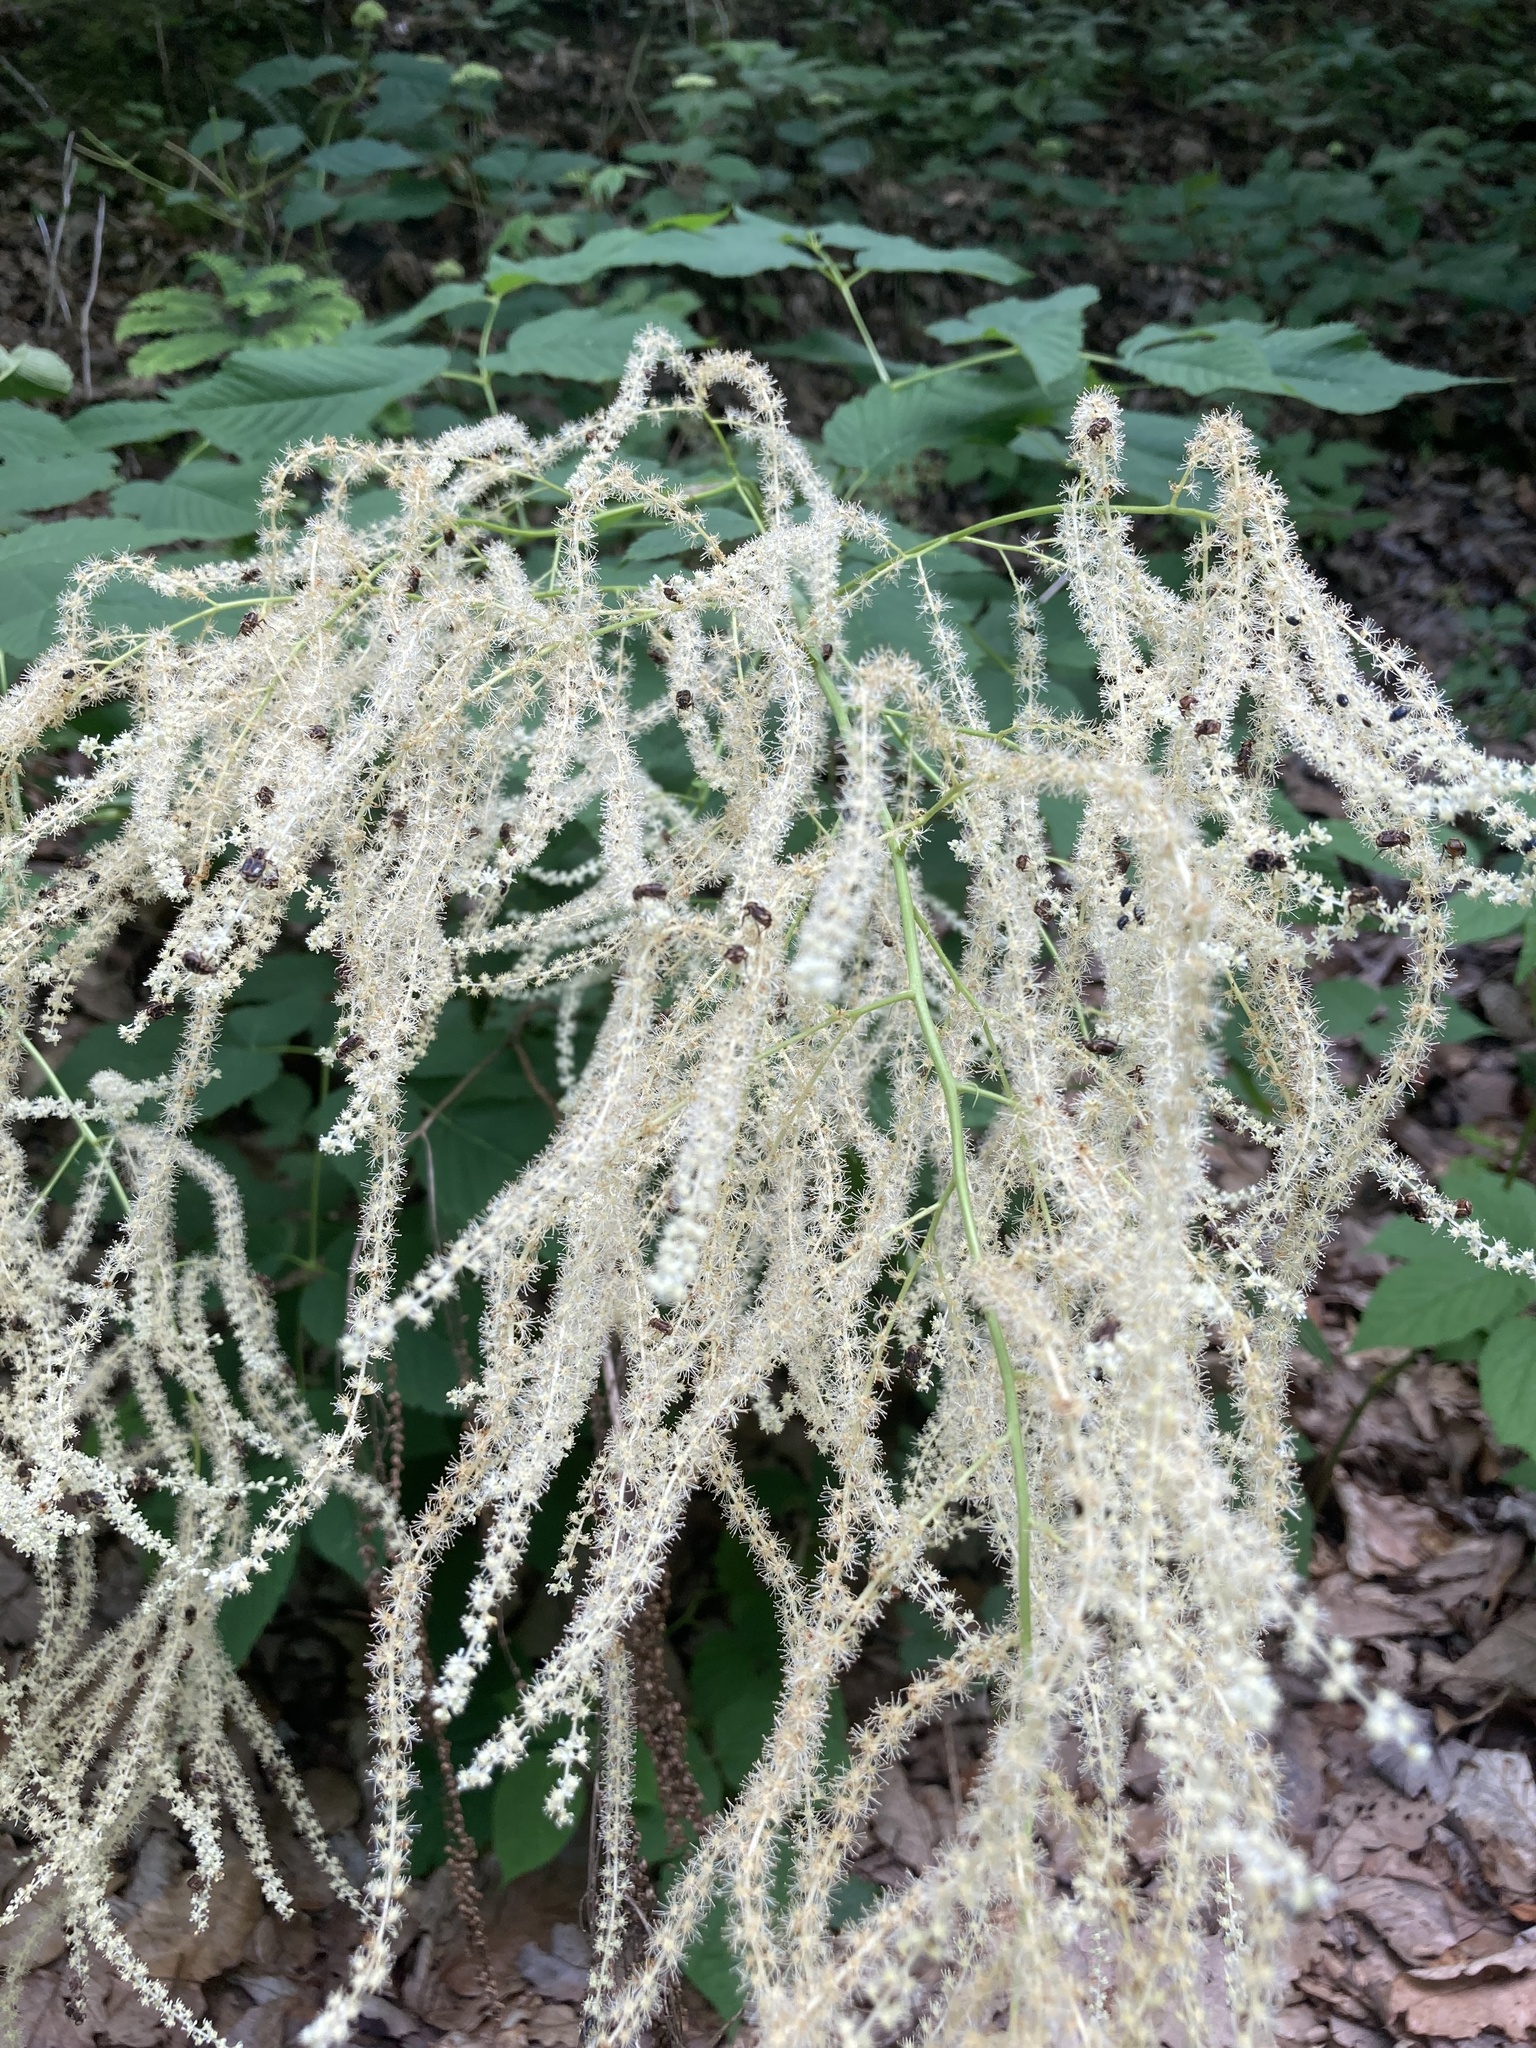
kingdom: Plantae
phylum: Tracheophyta
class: Magnoliopsida
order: Rosales
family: Rosaceae
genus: Aruncus
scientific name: Aruncus dioicus
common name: Buck's-beard
